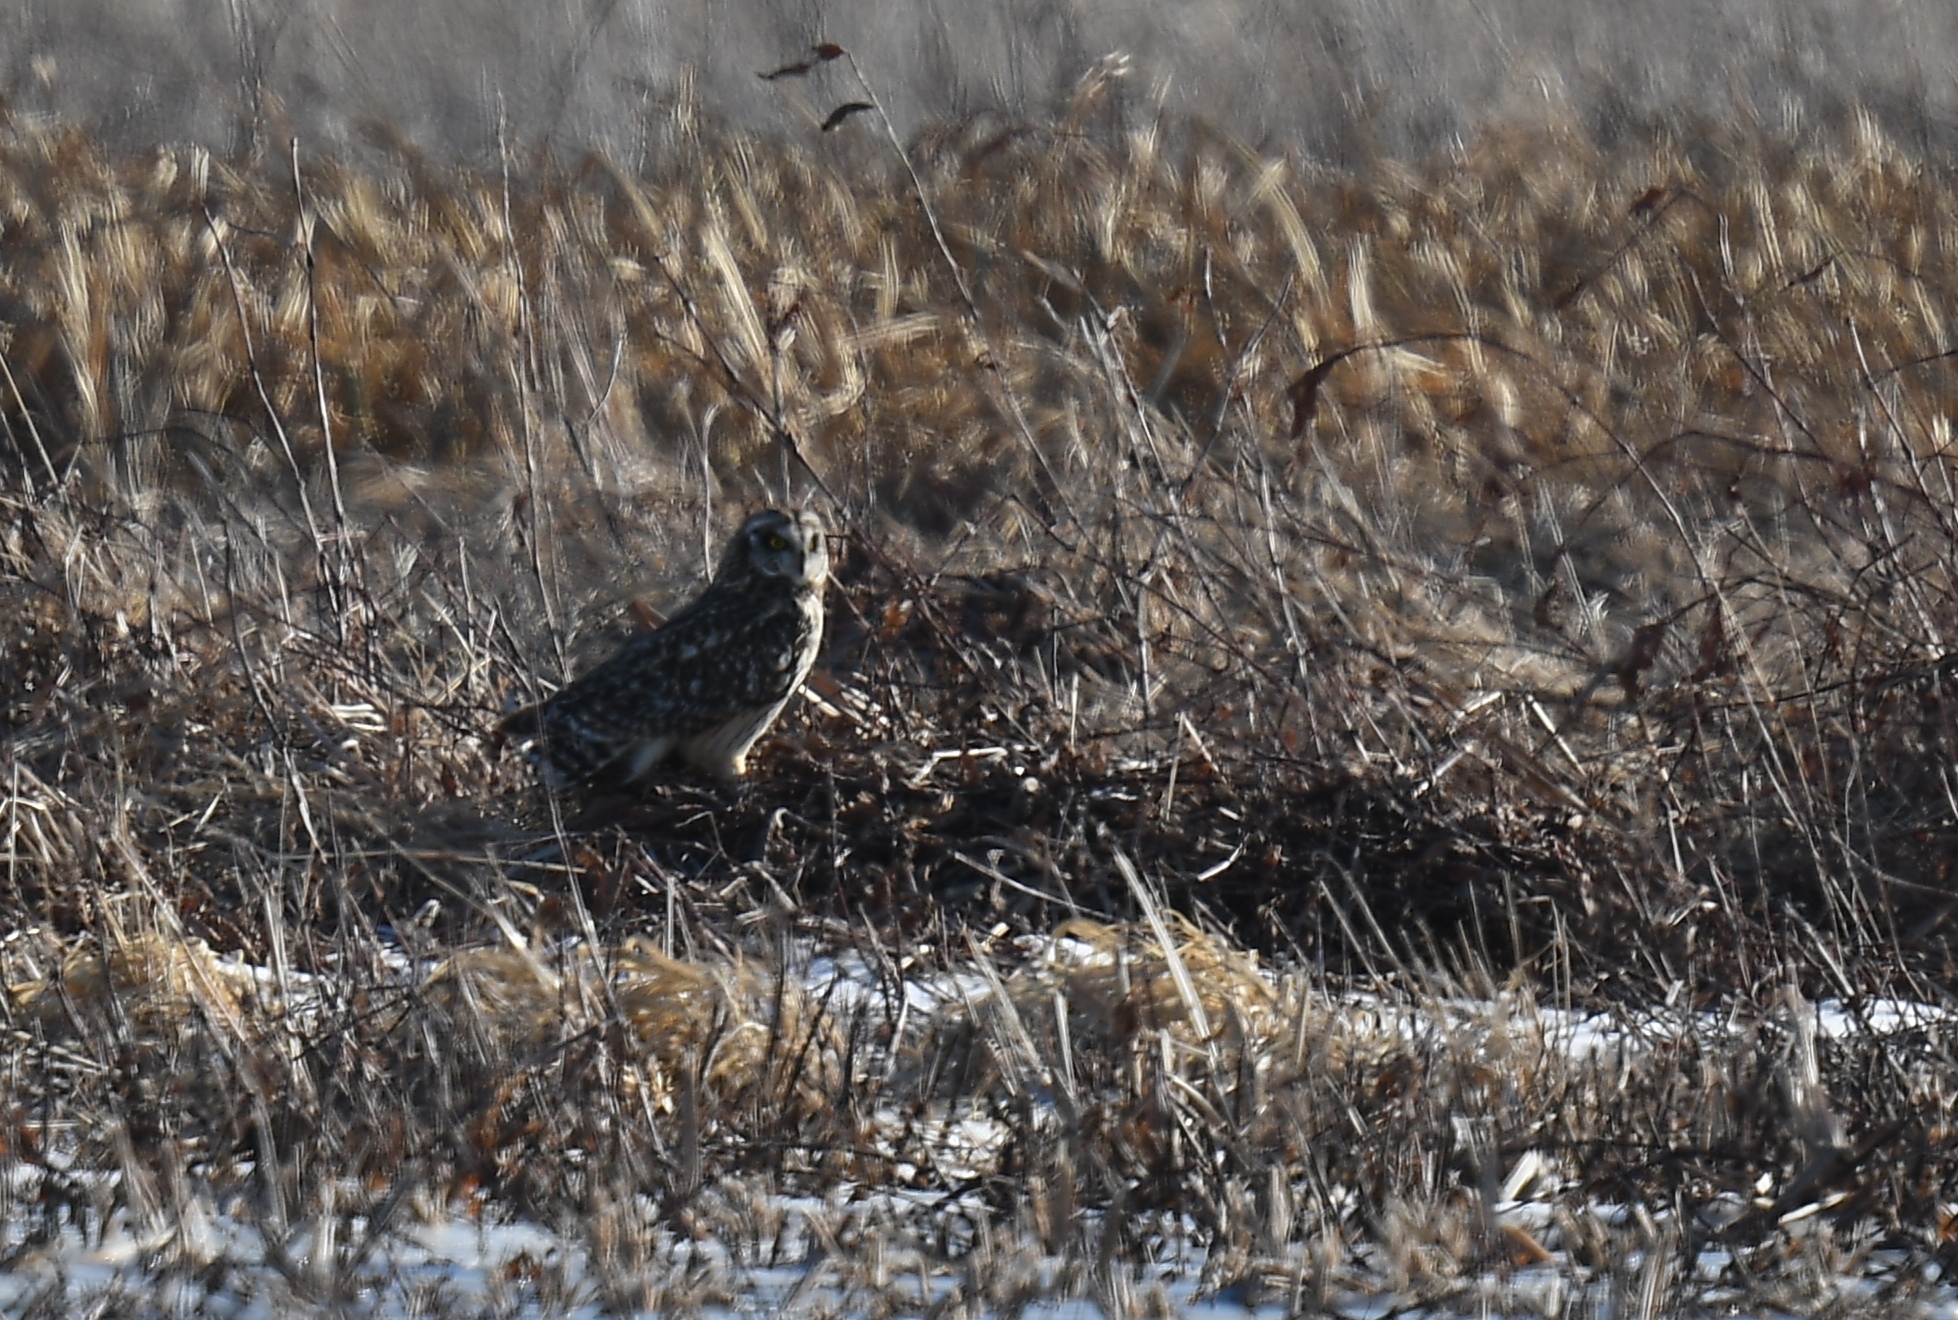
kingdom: Animalia
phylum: Chordata
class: Aves
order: Strigiformes
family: Strigidae
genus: Asio
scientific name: Asio flammeus
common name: Short-eared owl
